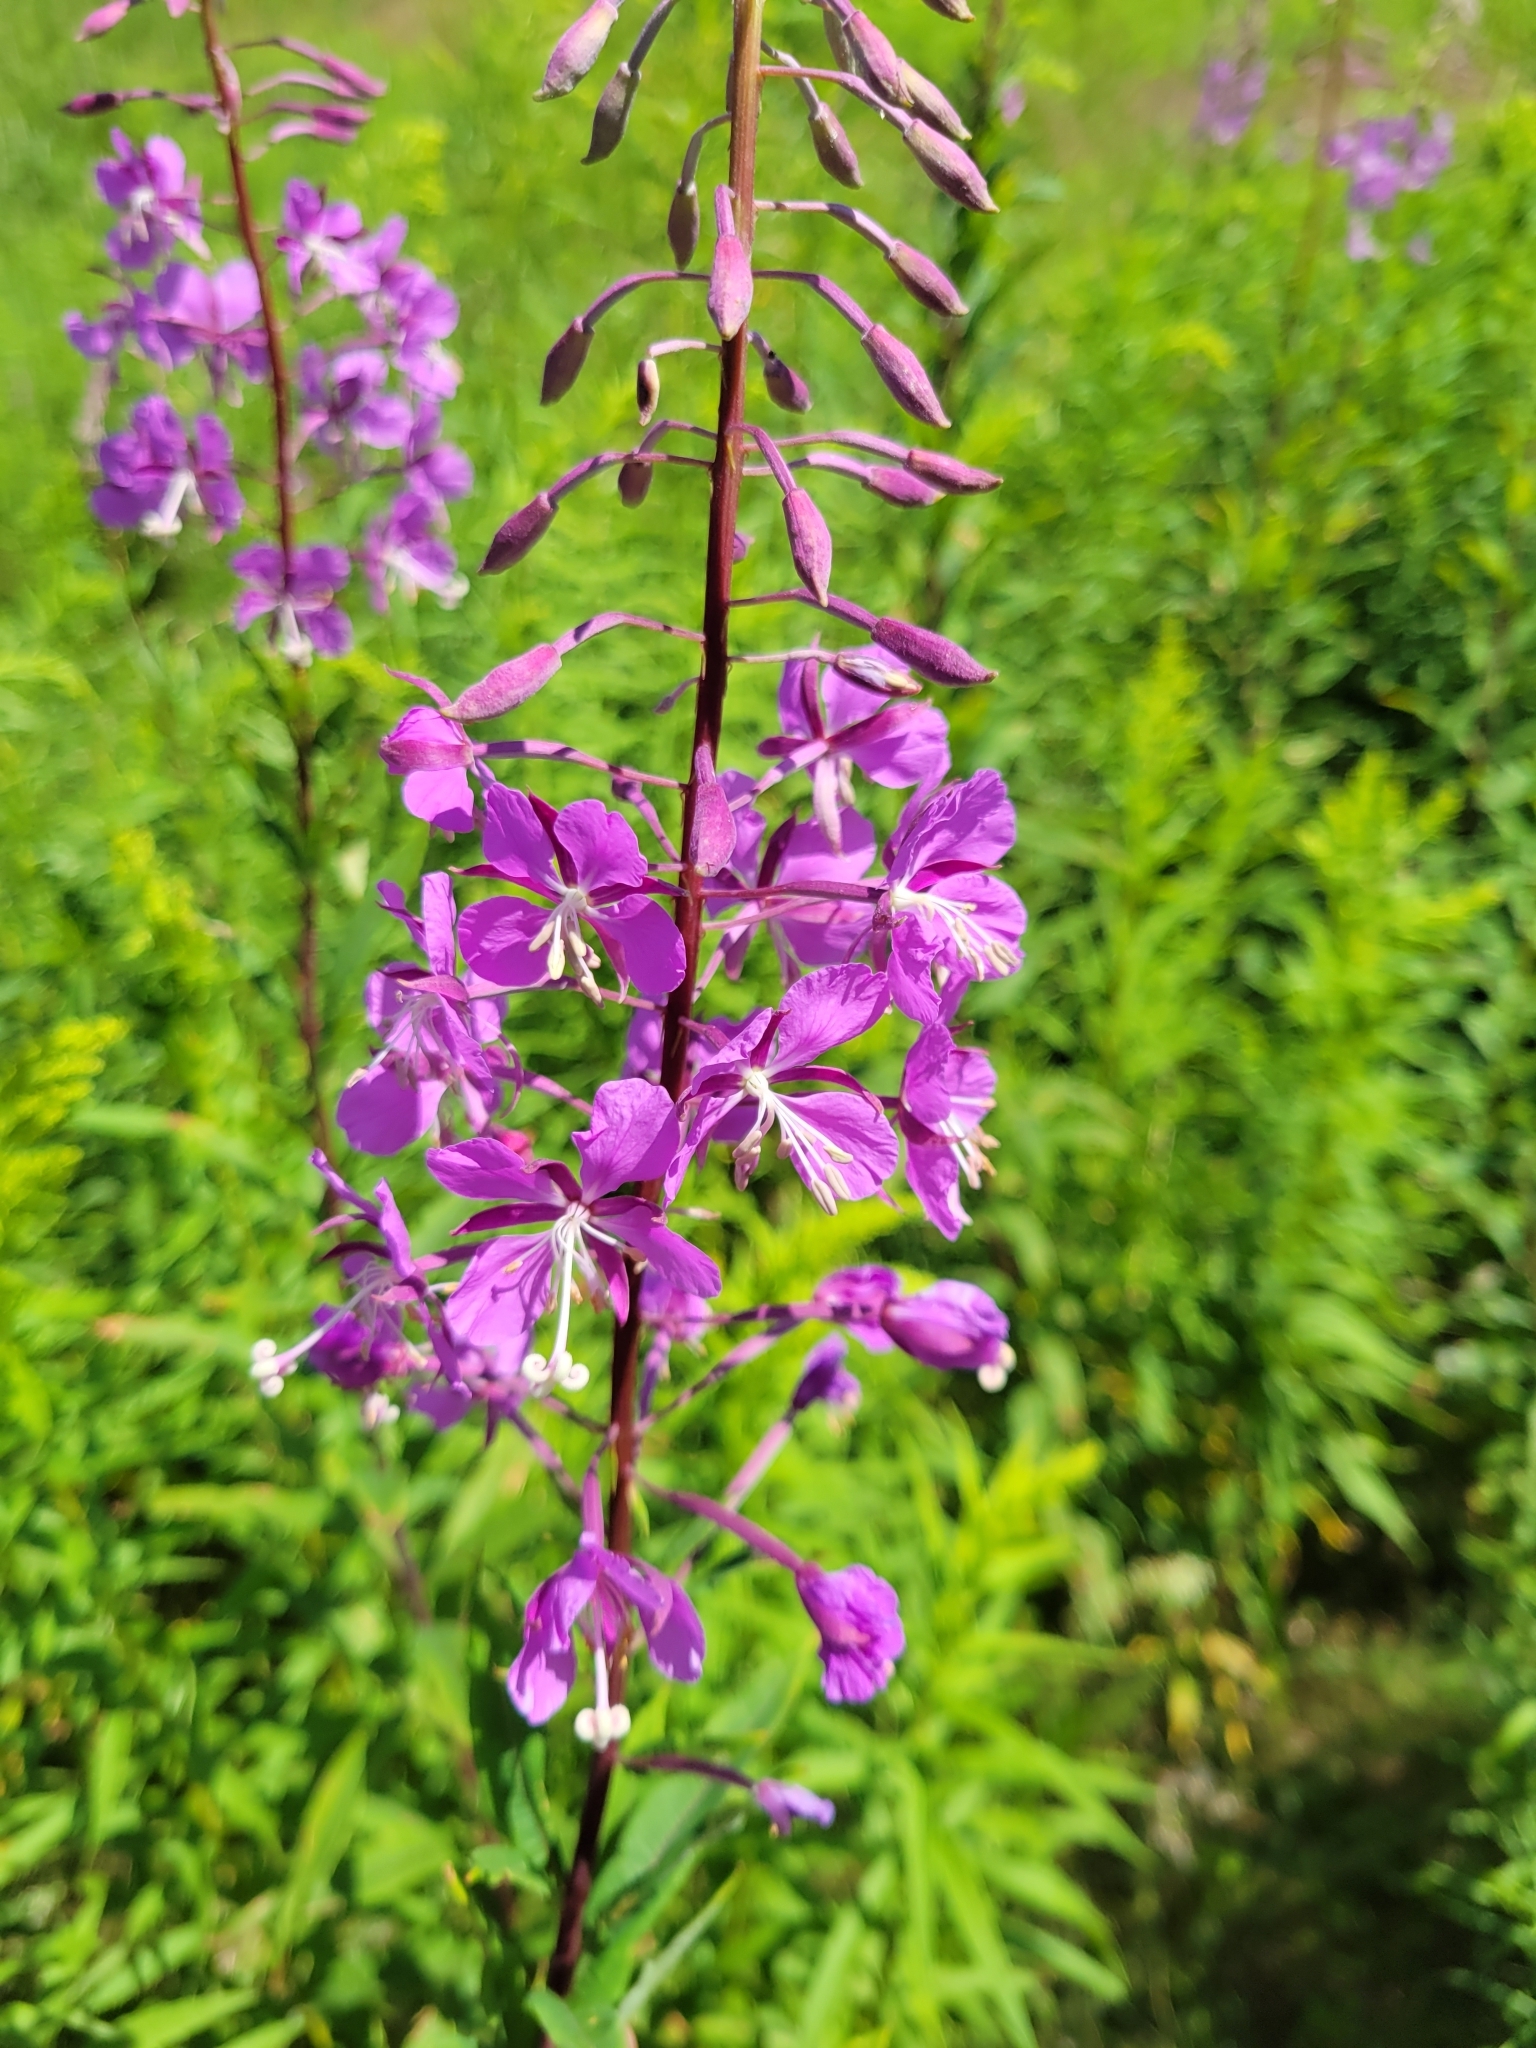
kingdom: Plantae
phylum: Tracheophyta
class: Magnoliopsida
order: Myrtales
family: Onagraceae
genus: Chamaenerion
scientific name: Chamaenerion angustifolium
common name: Fireweed
